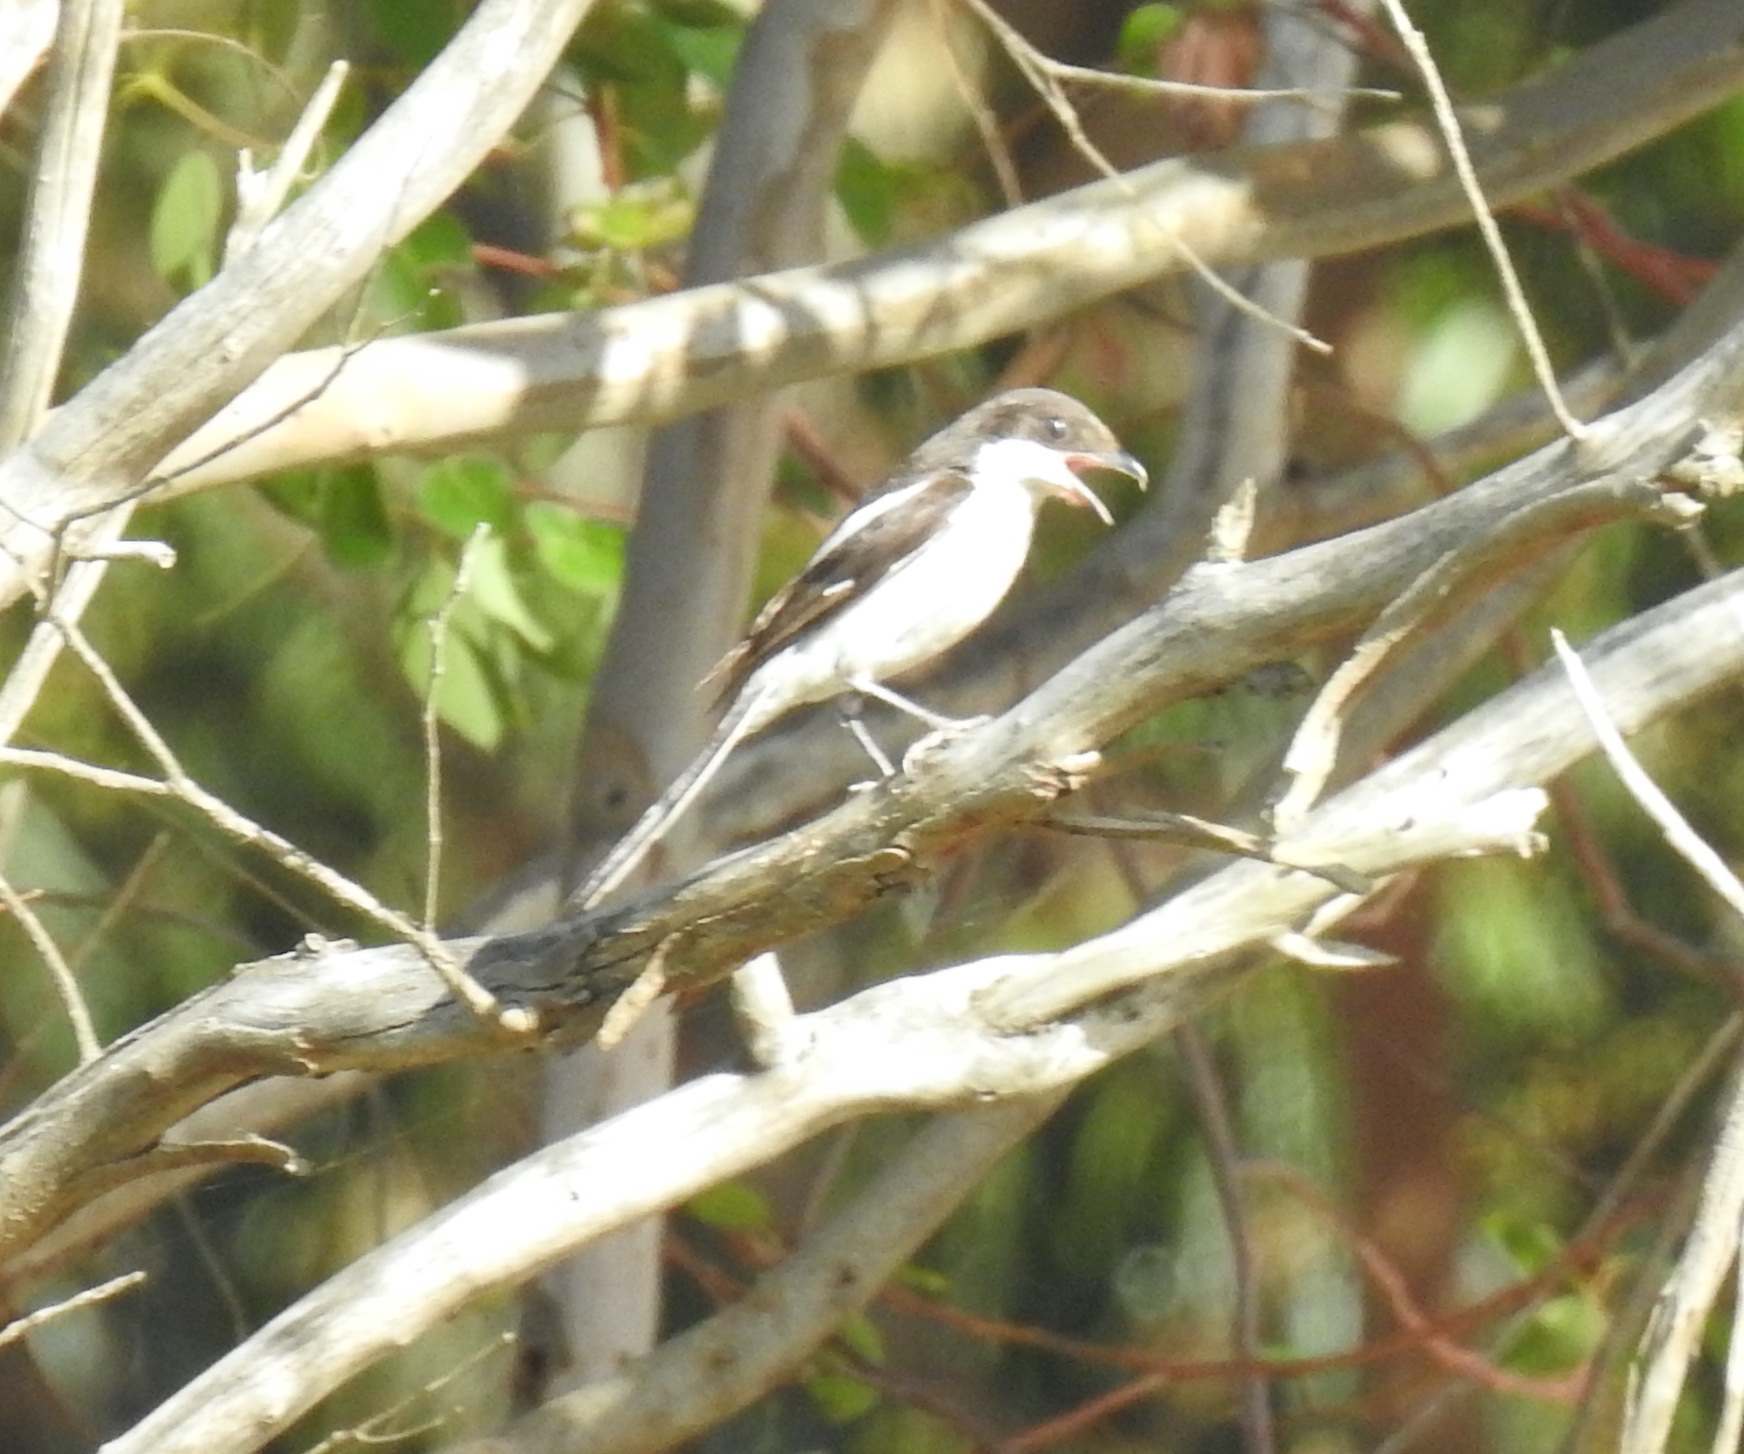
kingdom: Animalia
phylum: Chordata
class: Aves
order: Passeriformes
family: Laniidae
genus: Lanius
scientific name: Lanius collaris
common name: Southern fiscal
